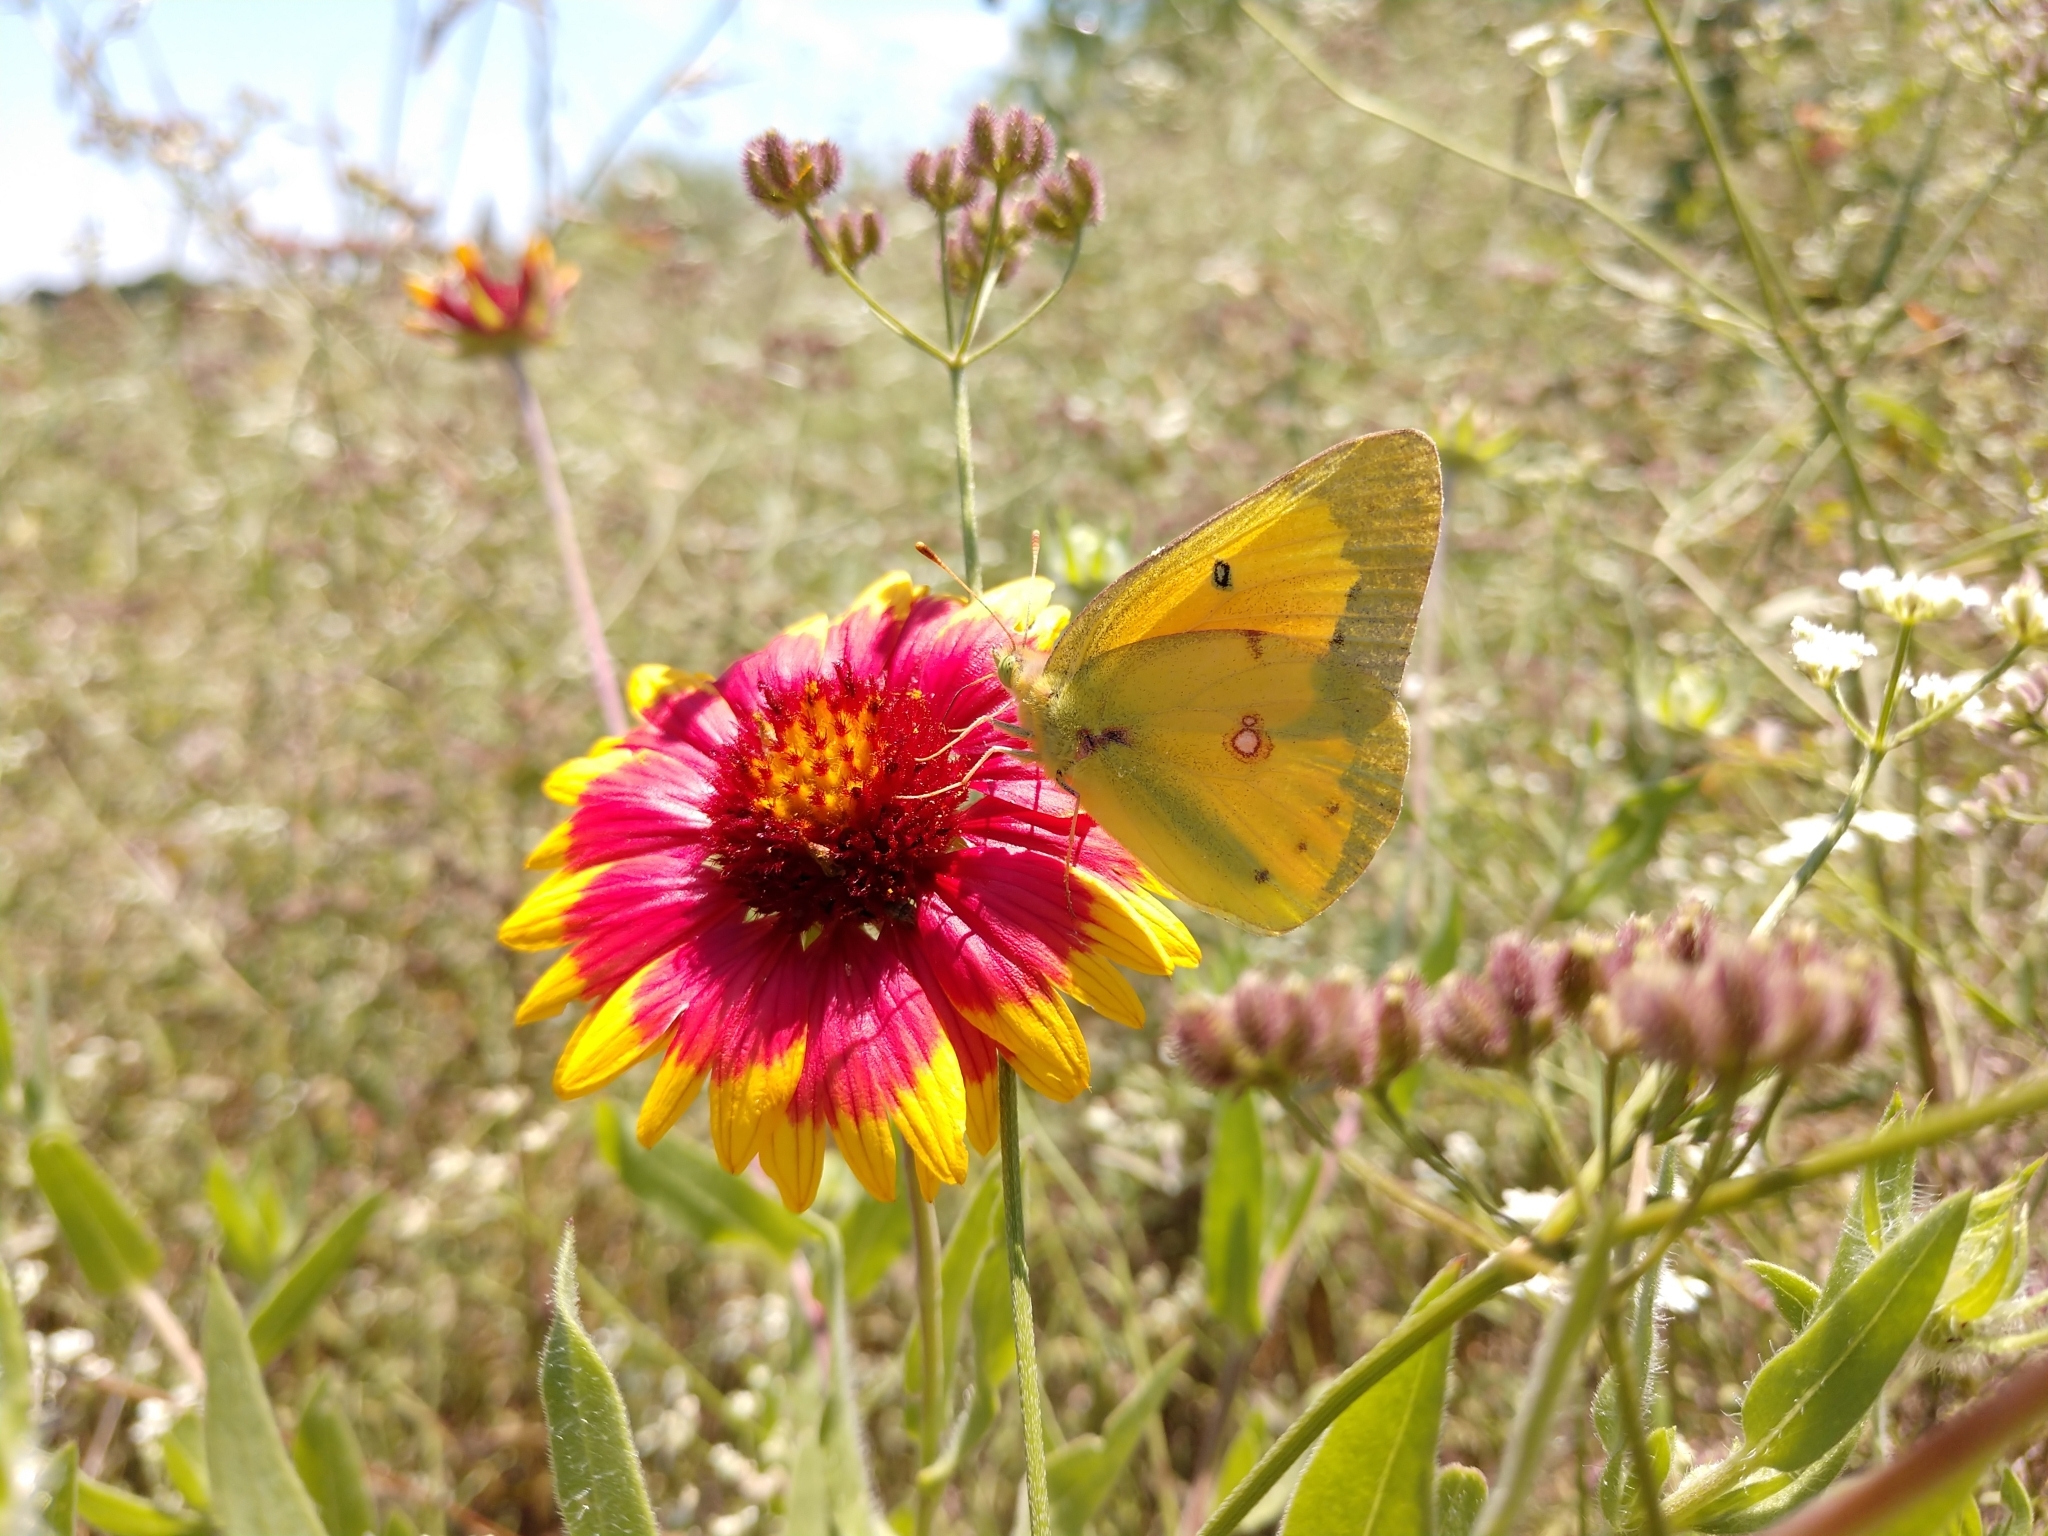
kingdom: Animalia
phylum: Arthropoda
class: Insecta
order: Lepidoptera
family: Pieridae
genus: Colias
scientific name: Colias eurytheme
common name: Alfalfa butterfly
